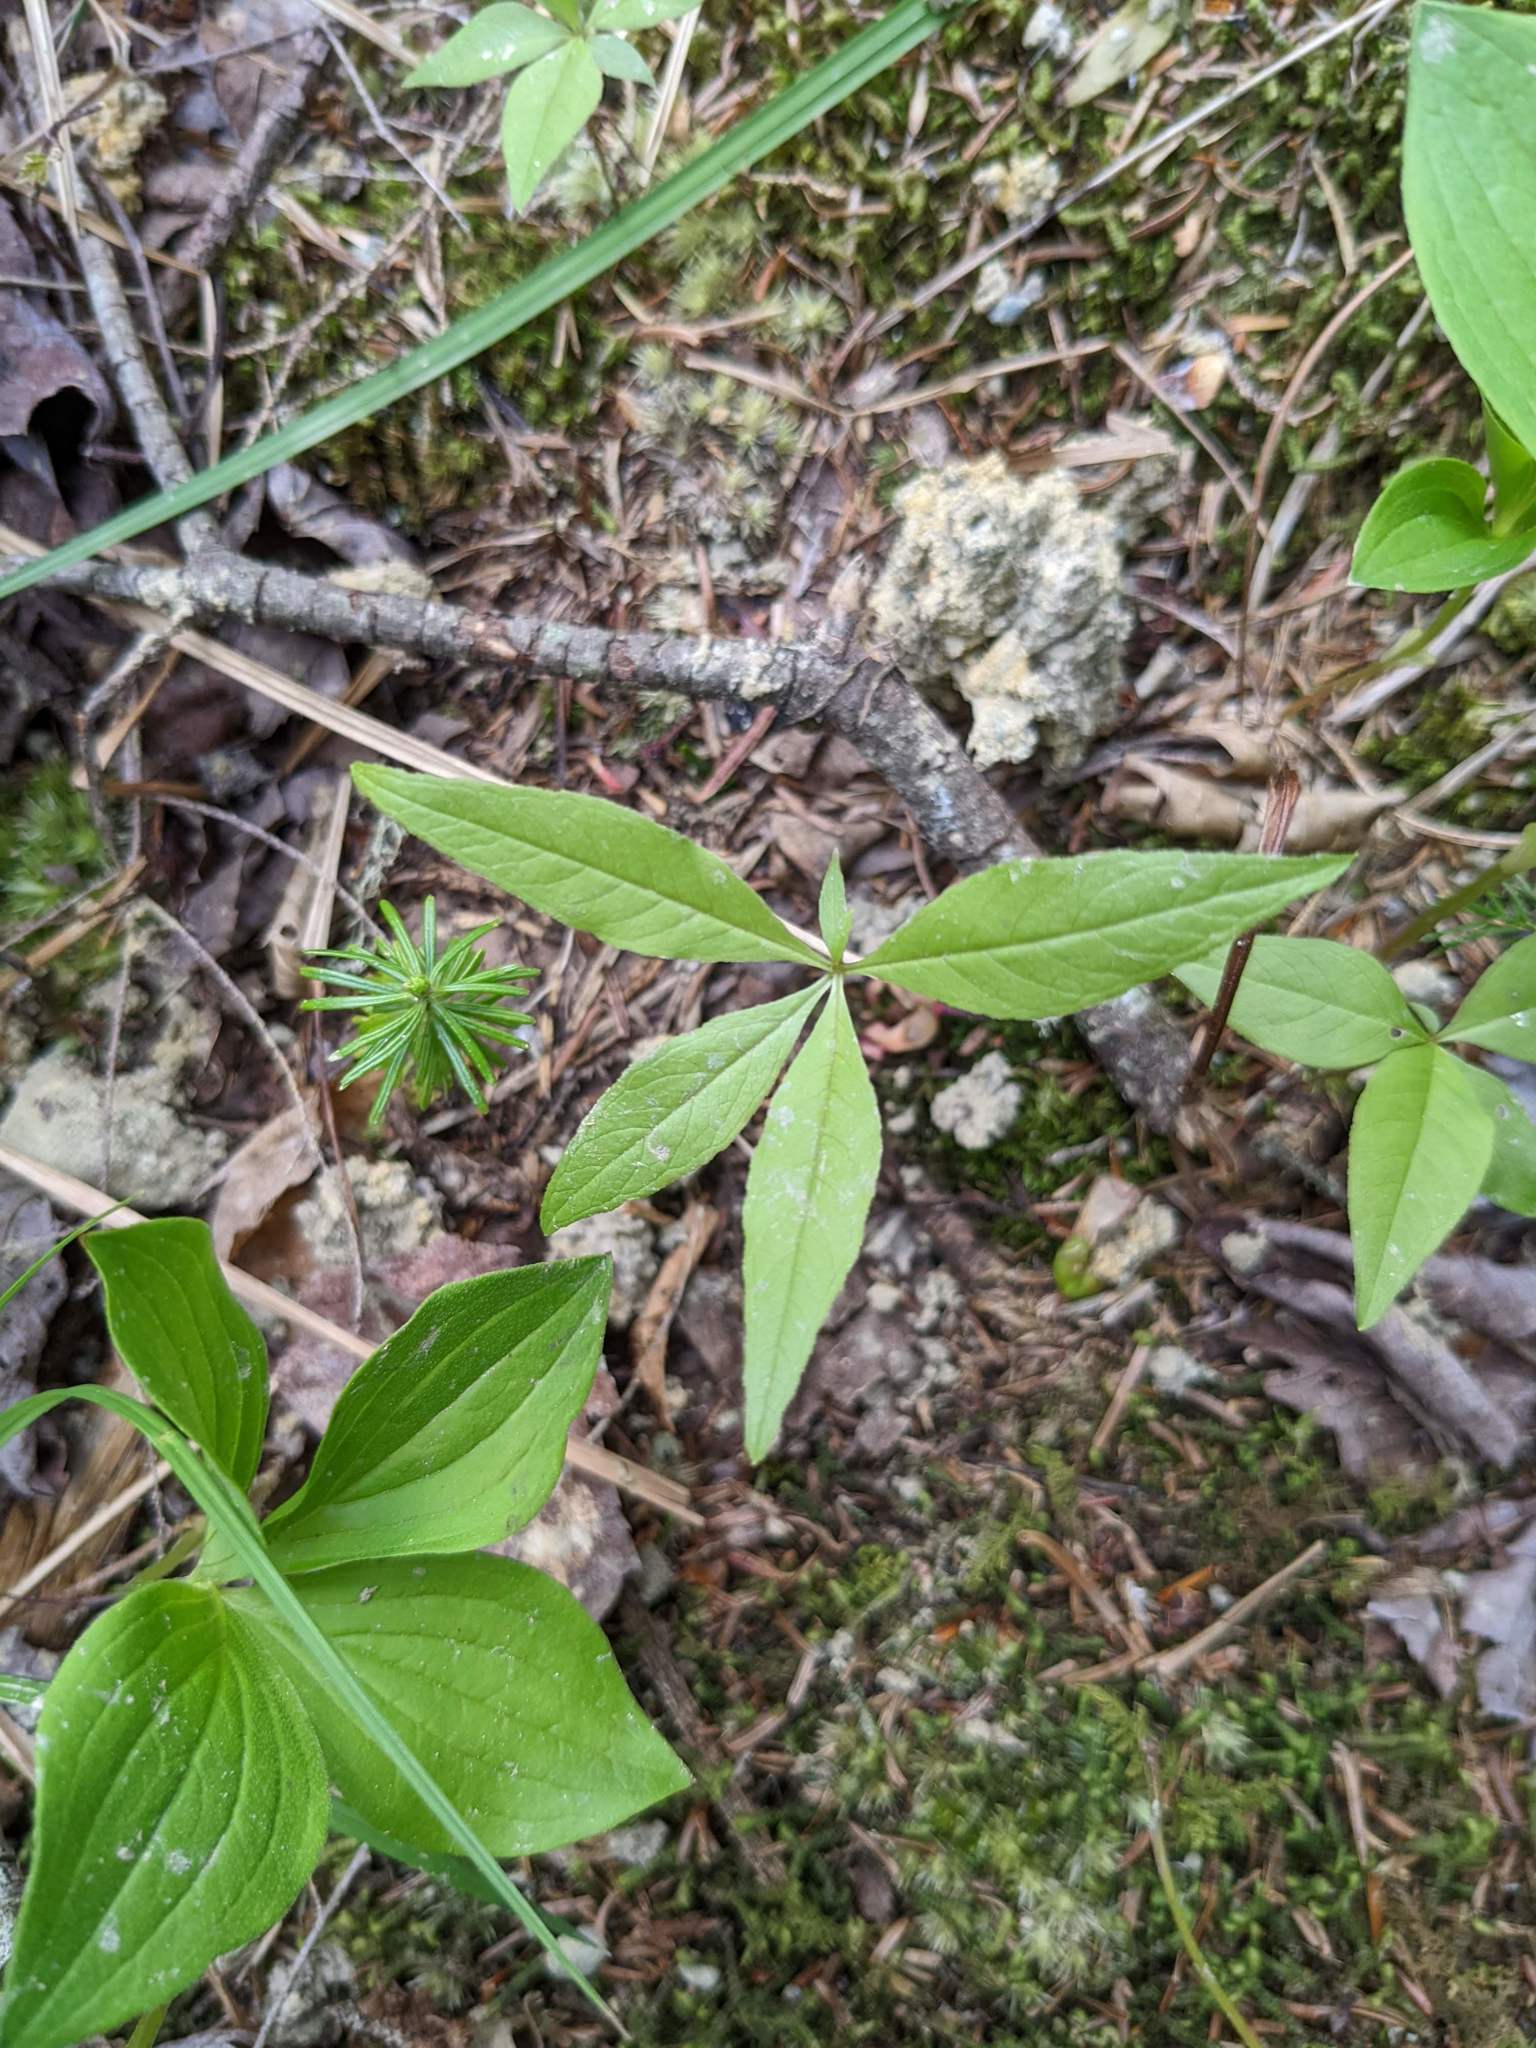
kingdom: Plantae
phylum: Tracheophyta
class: Magnoliopsida
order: Ericales
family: Primulaceae
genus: Lysimachia
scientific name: Lysimachia borealis
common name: American starflower
